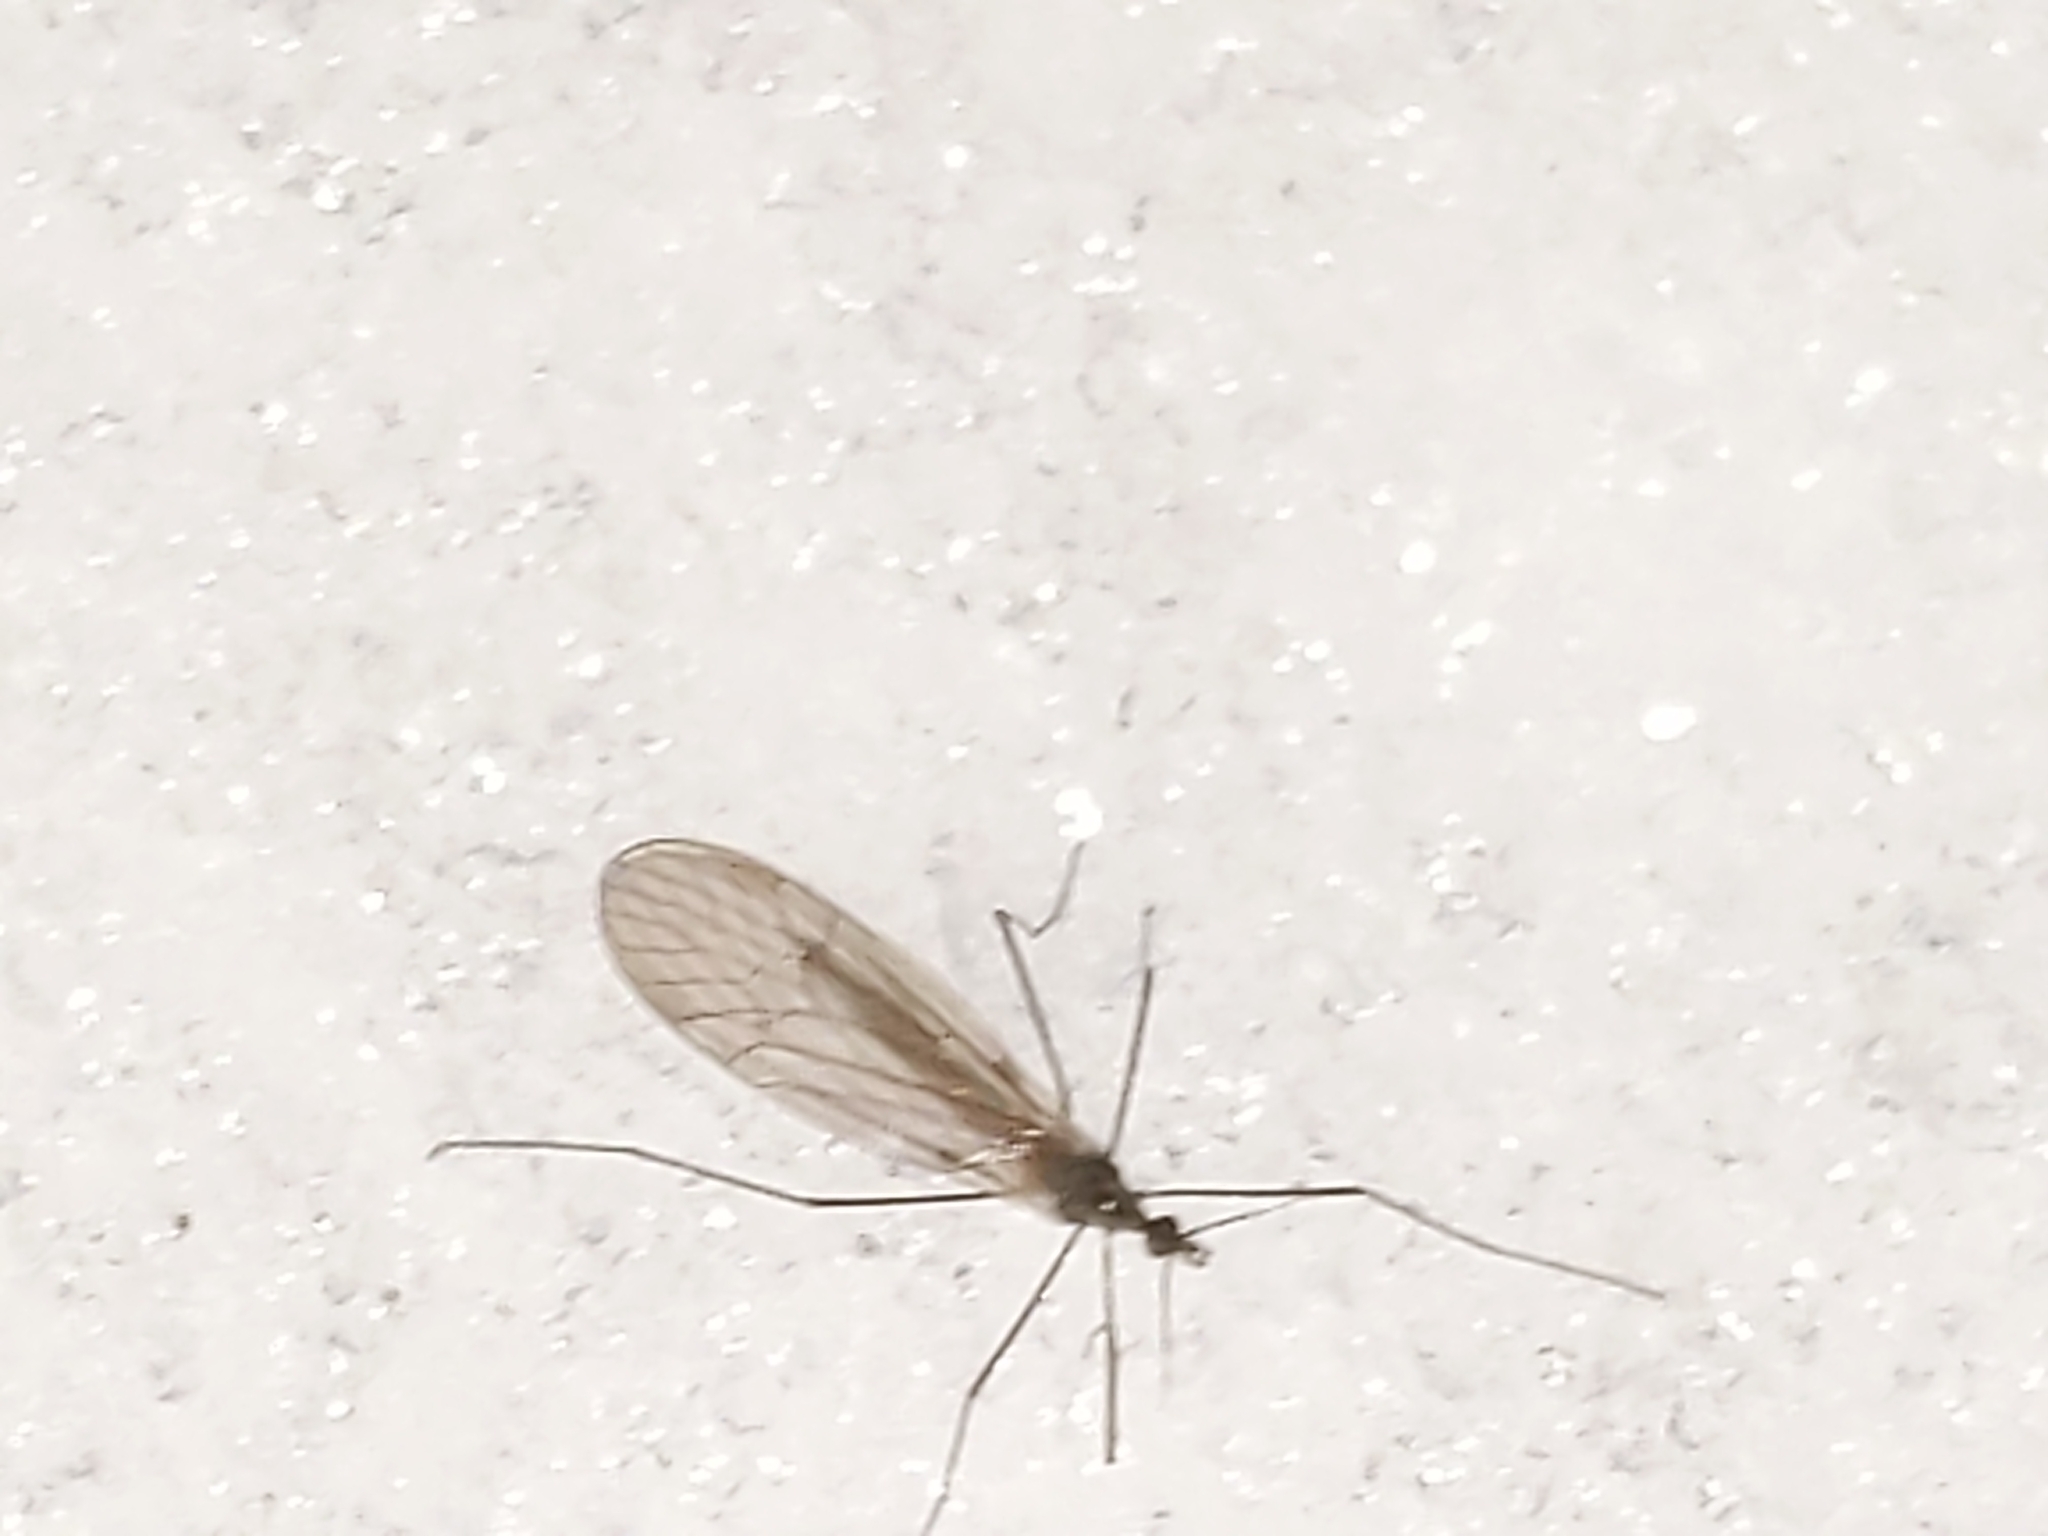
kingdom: Animalia
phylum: Arthropoda
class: Insecta
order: Diptera
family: Trichoceridae
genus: Trichocera
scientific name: Trichocera
